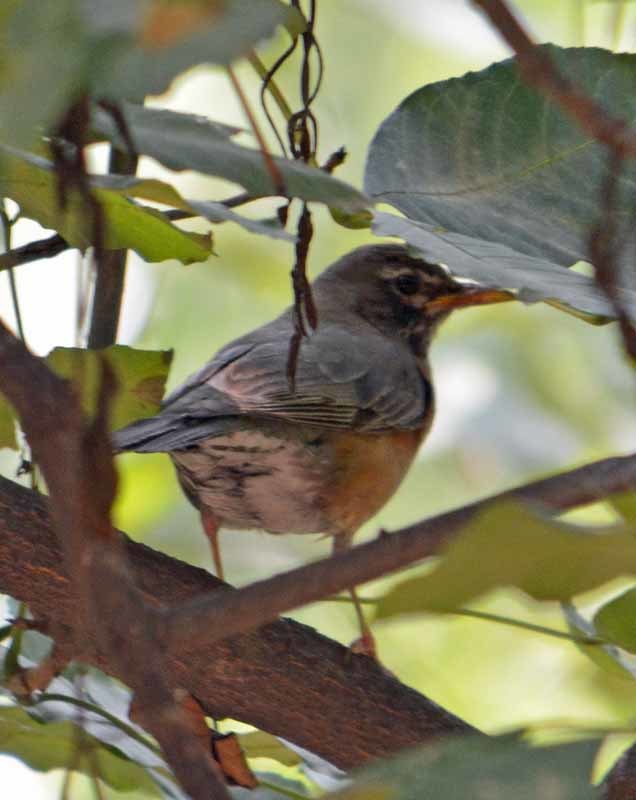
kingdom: Animalia
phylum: Chordata
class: Aves
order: Passeriformes
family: Turdidae
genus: Turdus
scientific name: Turdus migratorius
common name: American robin
